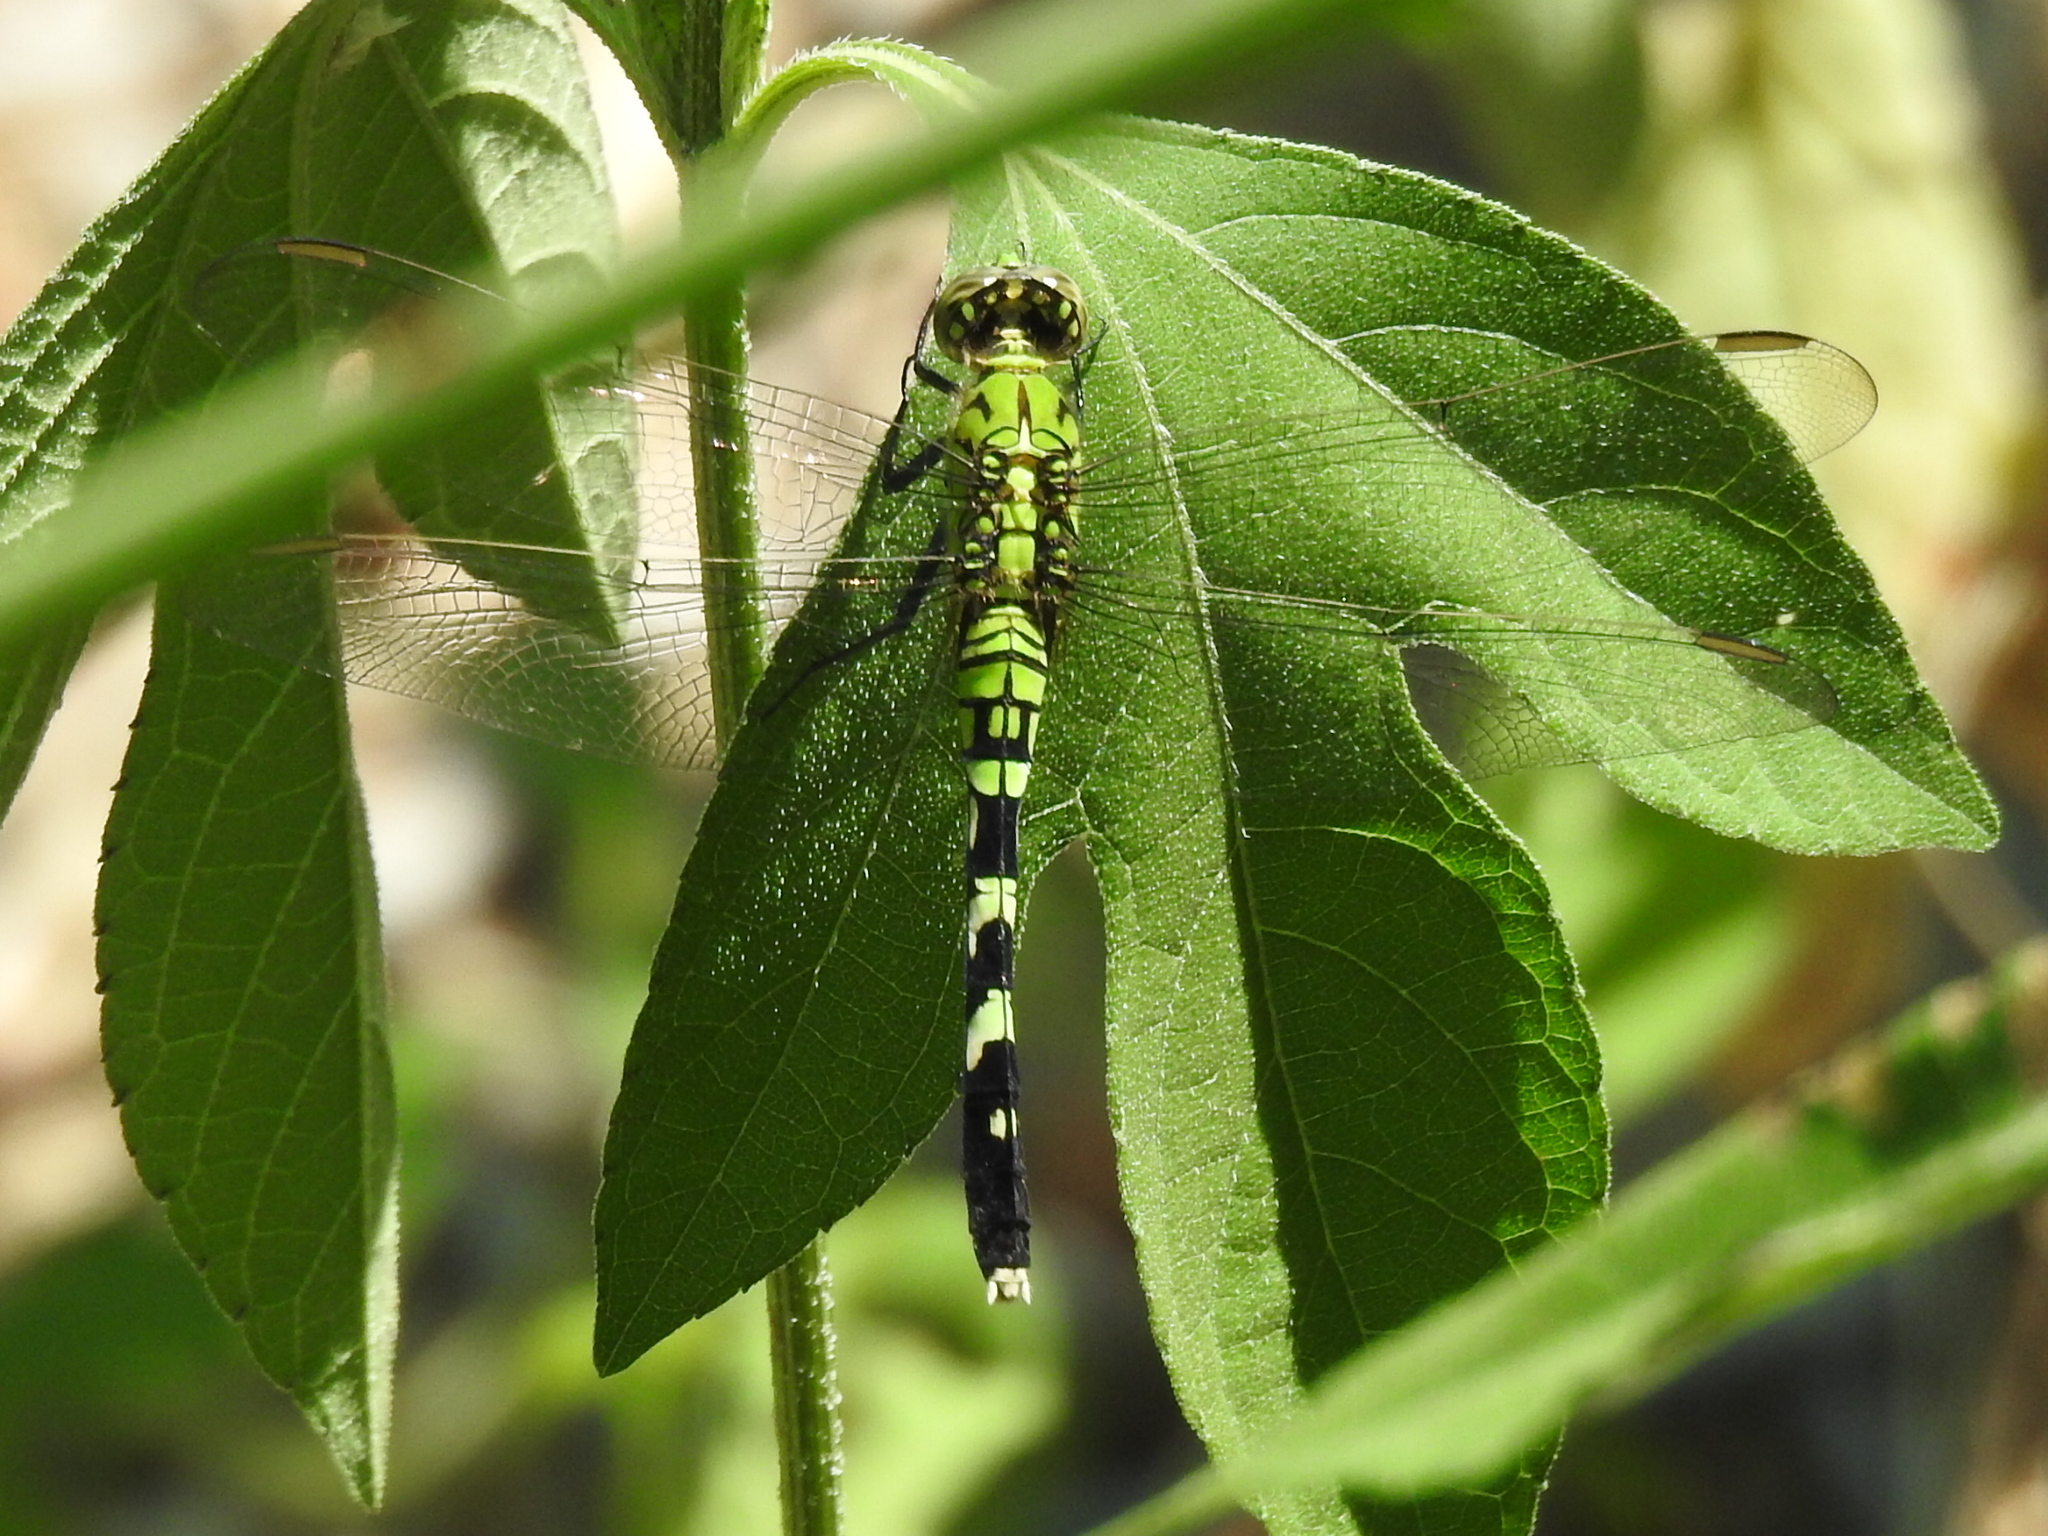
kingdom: Animalia
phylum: Arthropoda
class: Insecta
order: Odonata
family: Libellulidae
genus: Erythemis
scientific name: Erythemis simplicicollis
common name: Eastern pondhawk
